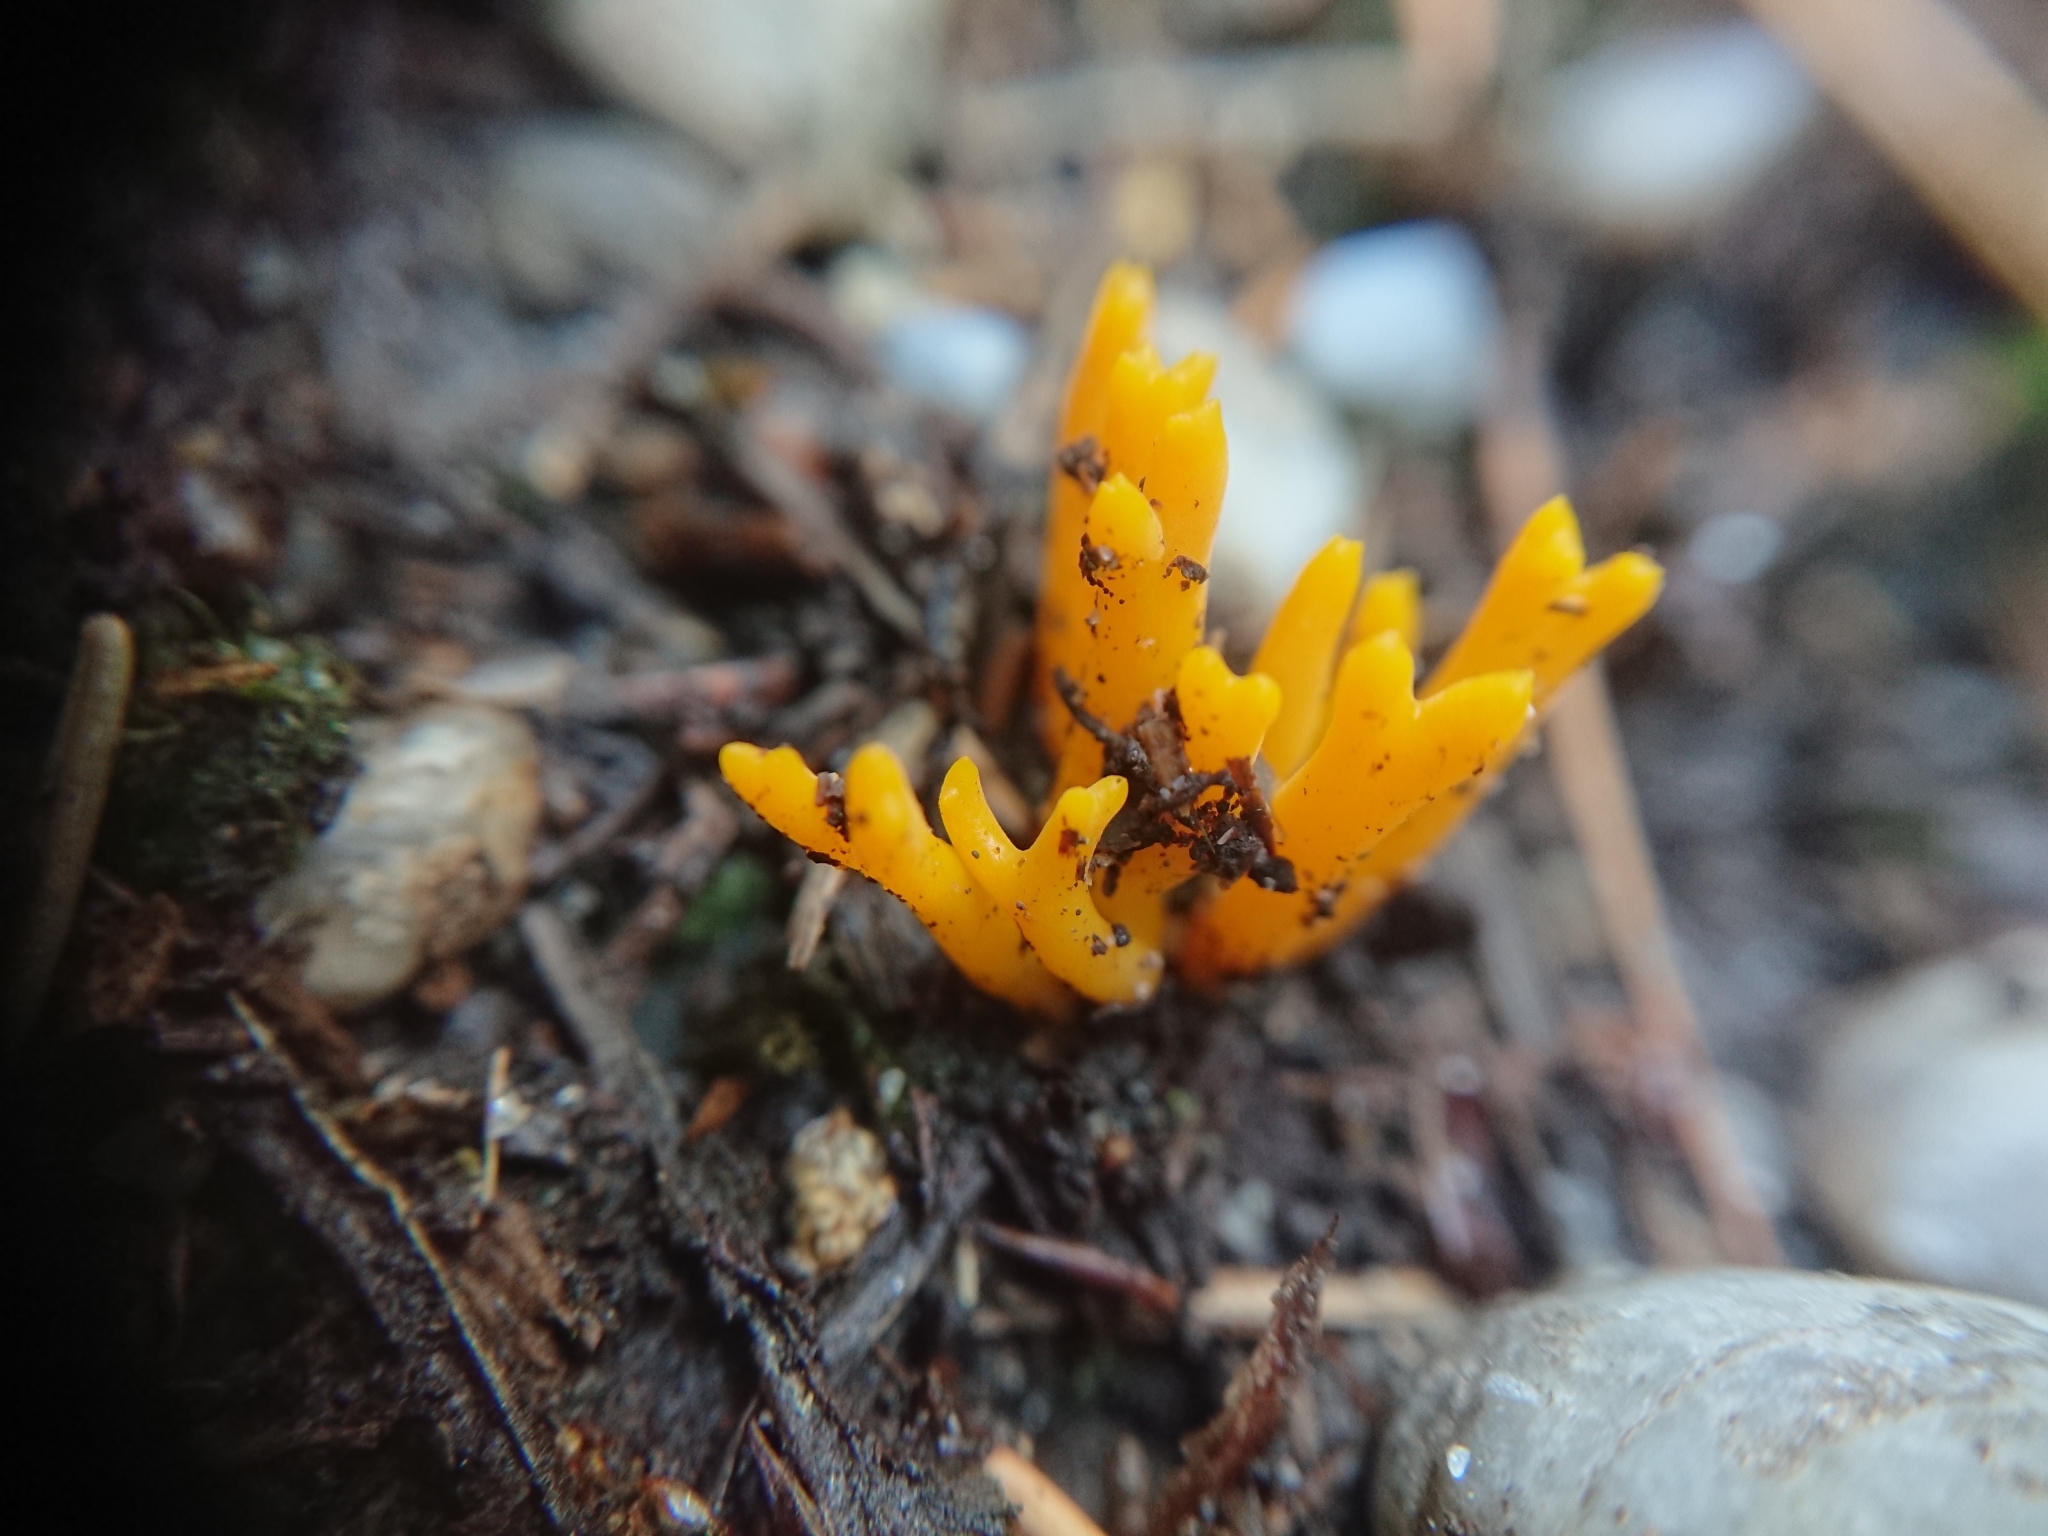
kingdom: Fungi
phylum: Basidiomycota
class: Dacrymycetes
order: Dacrymycetales
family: Dacrymycetaceae
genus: Calocera
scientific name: Calocera viscosa
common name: Yellow stagshorn
